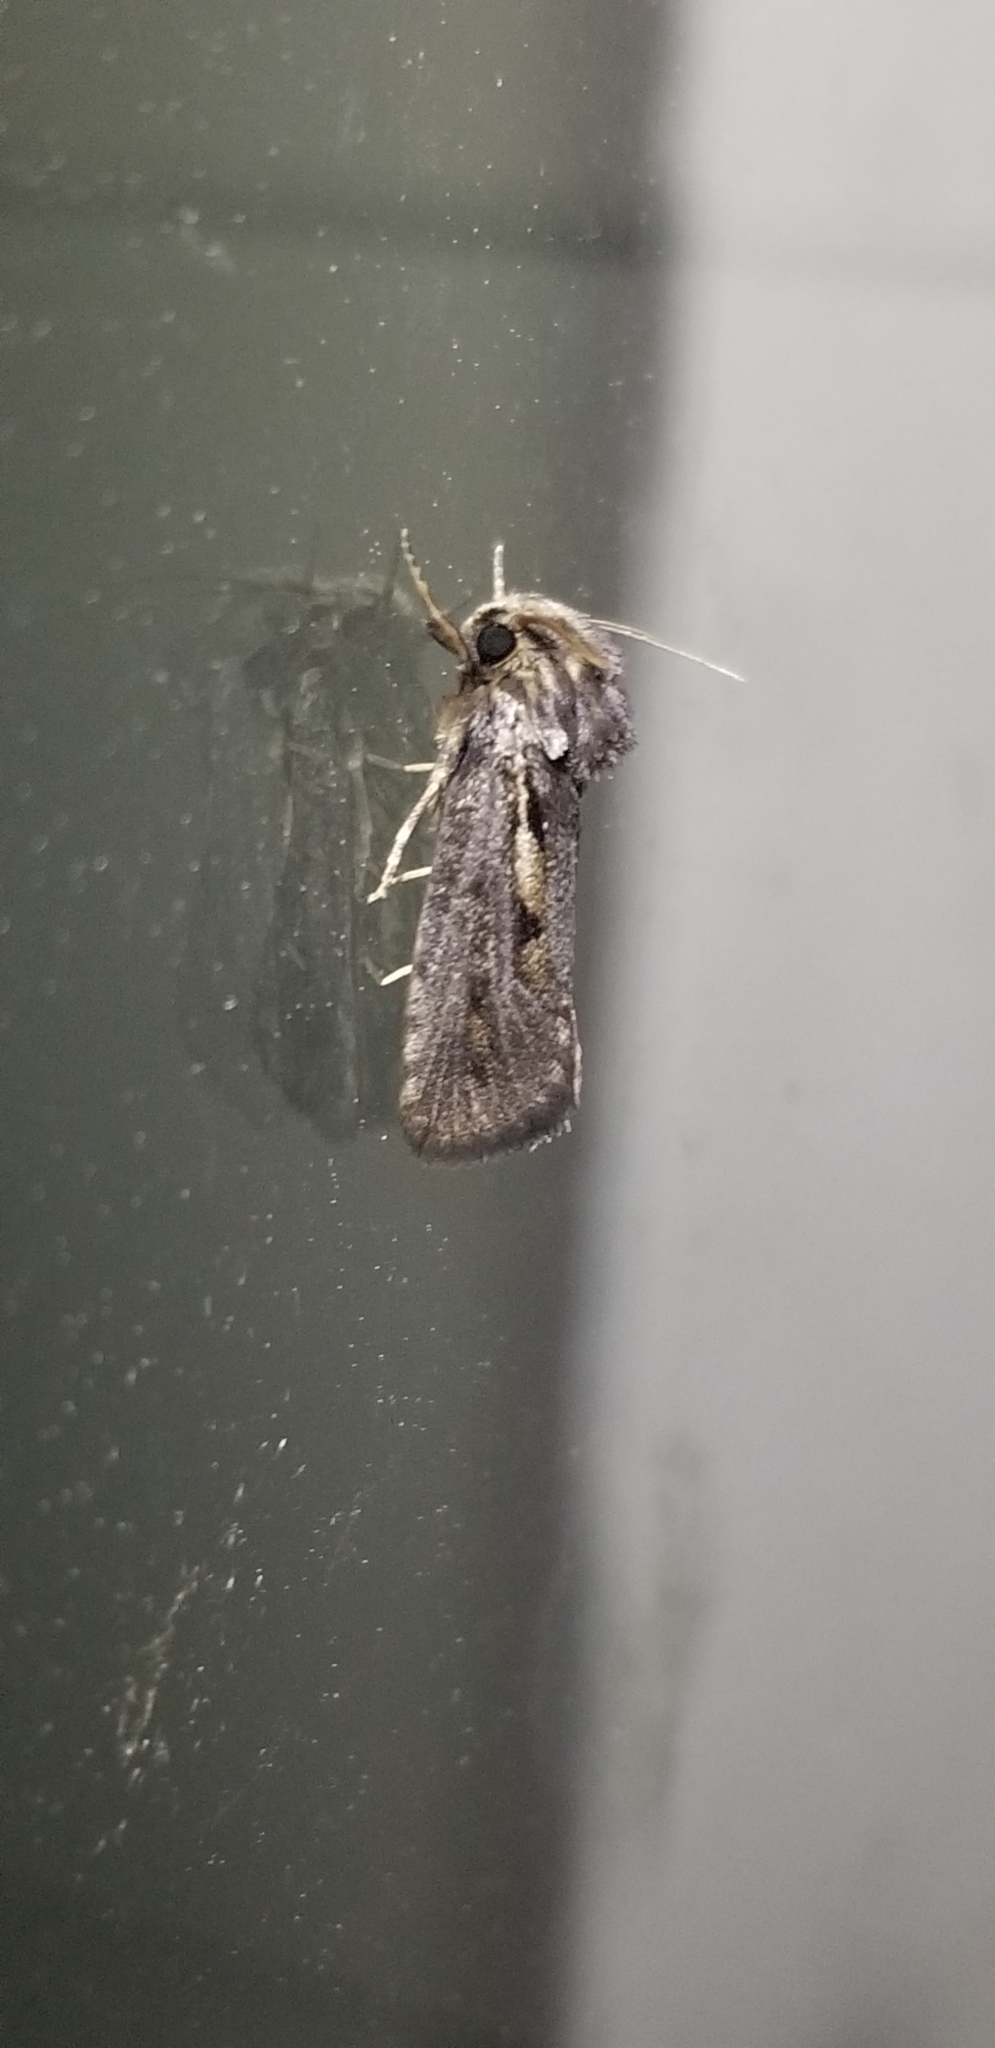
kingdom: Animalia
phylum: Arthropoda
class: Insecta
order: Lepidoptera
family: Tineidae
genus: Acrolophus
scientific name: Acrolophus popeanella
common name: Clemens' grass tubeworm moth
